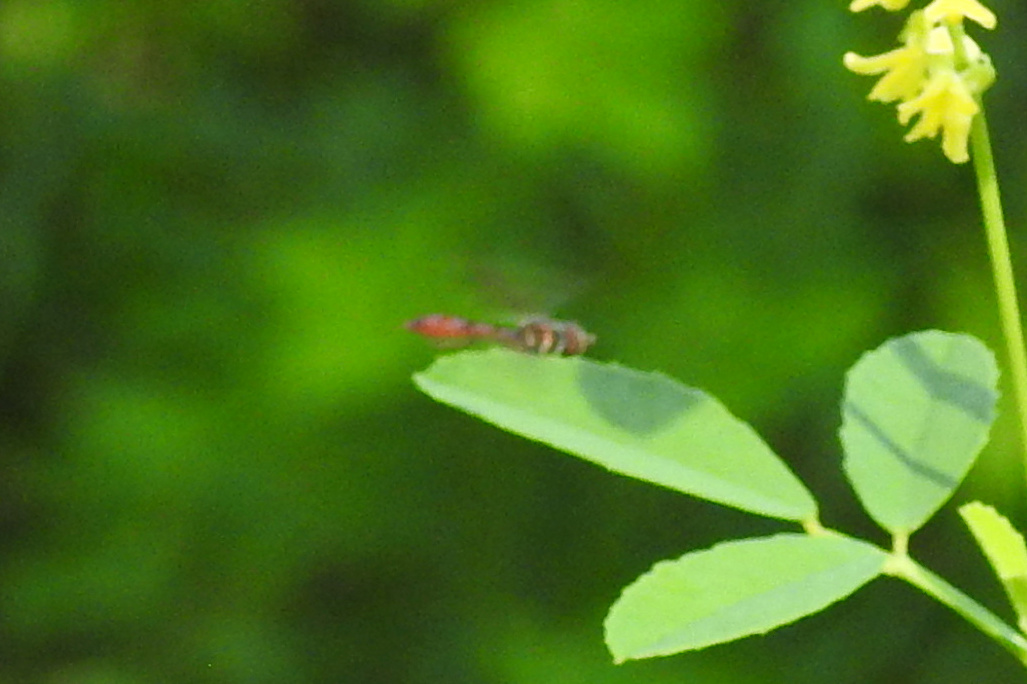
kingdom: Animalia
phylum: Arthropoda
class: Insecta
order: Diptera
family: Syrphidae
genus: Ocyptamus
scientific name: Ocyptamus fuscipennis
